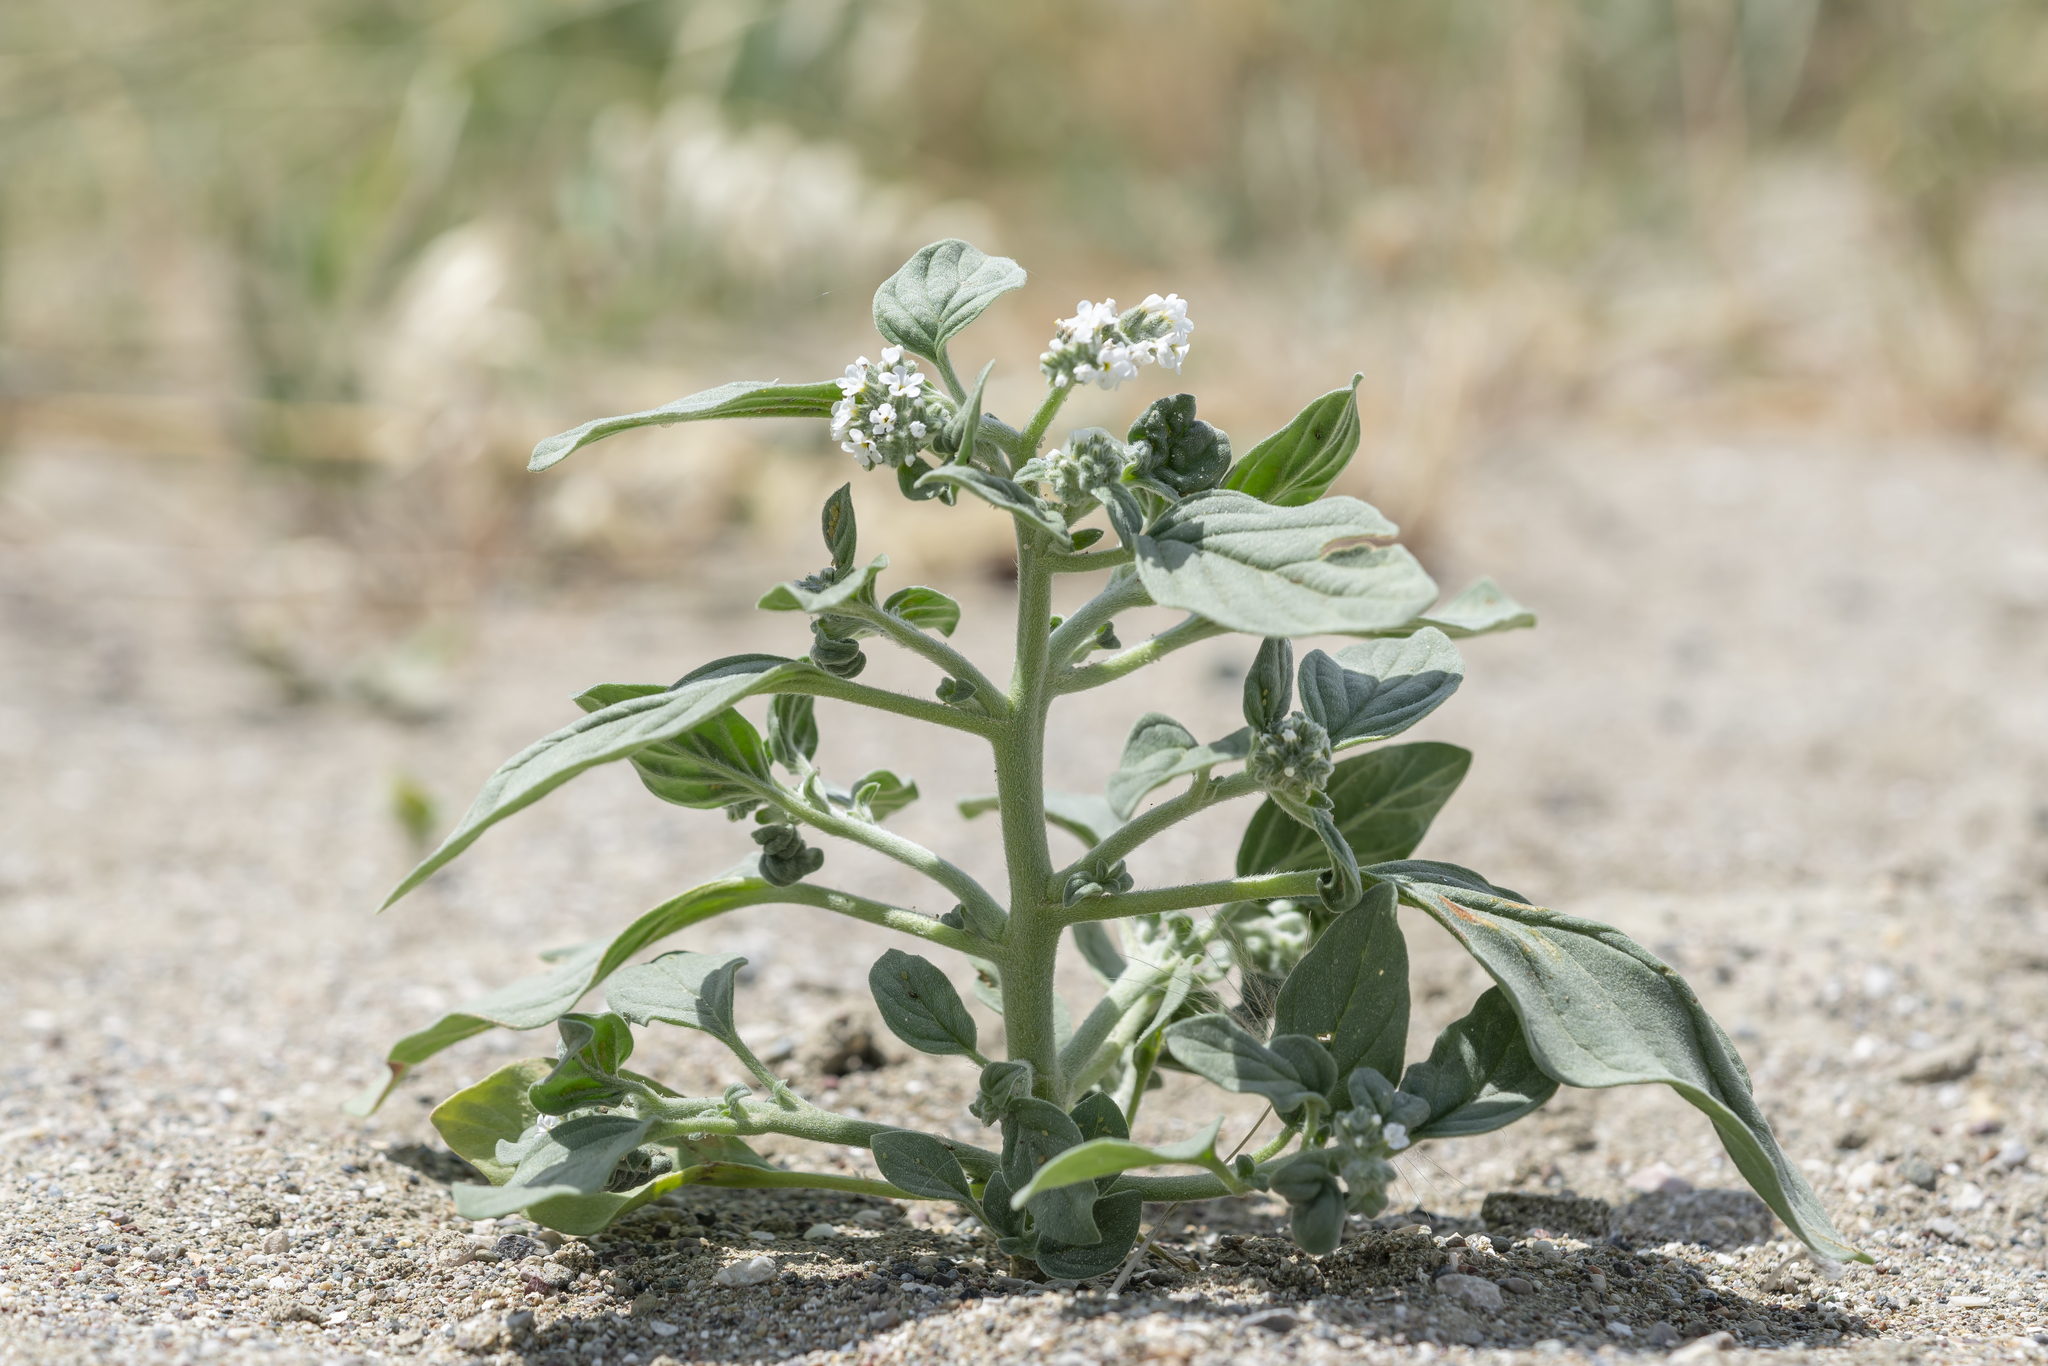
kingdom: Plantae
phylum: Tracheophyta
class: Magnoliopsida
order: Boraginales
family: Heliotropiaceae
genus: Heliotropium
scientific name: Heliotropium dolosum
